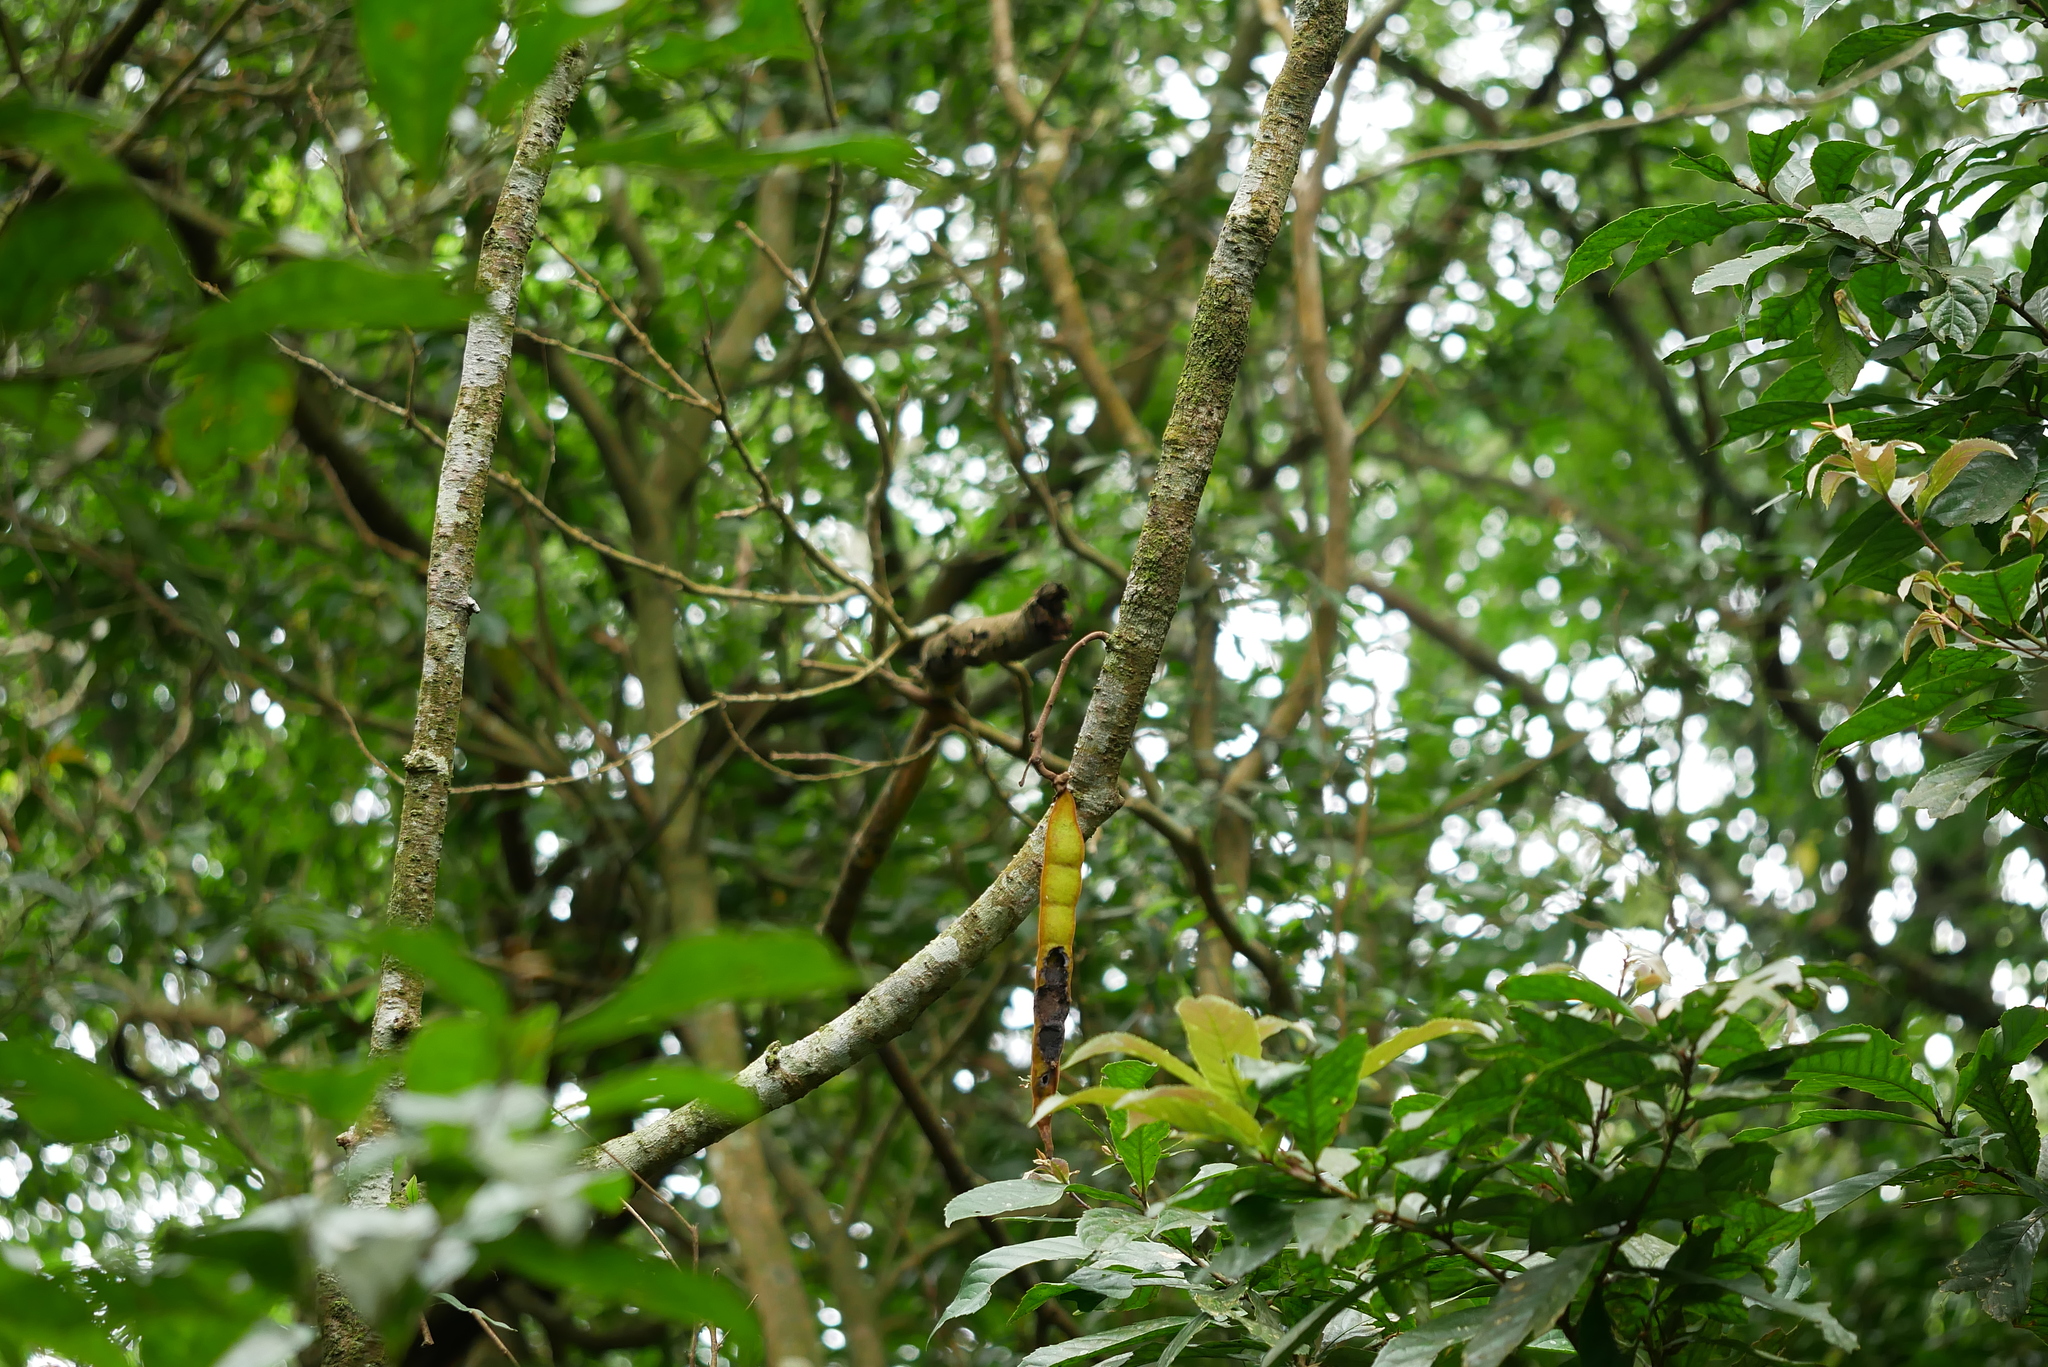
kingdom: Plantae
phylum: Tracheophyta
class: Magnoliopsida
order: Fabales
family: Fabaceae
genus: Mucuna
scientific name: Mucuna macrocarpa
